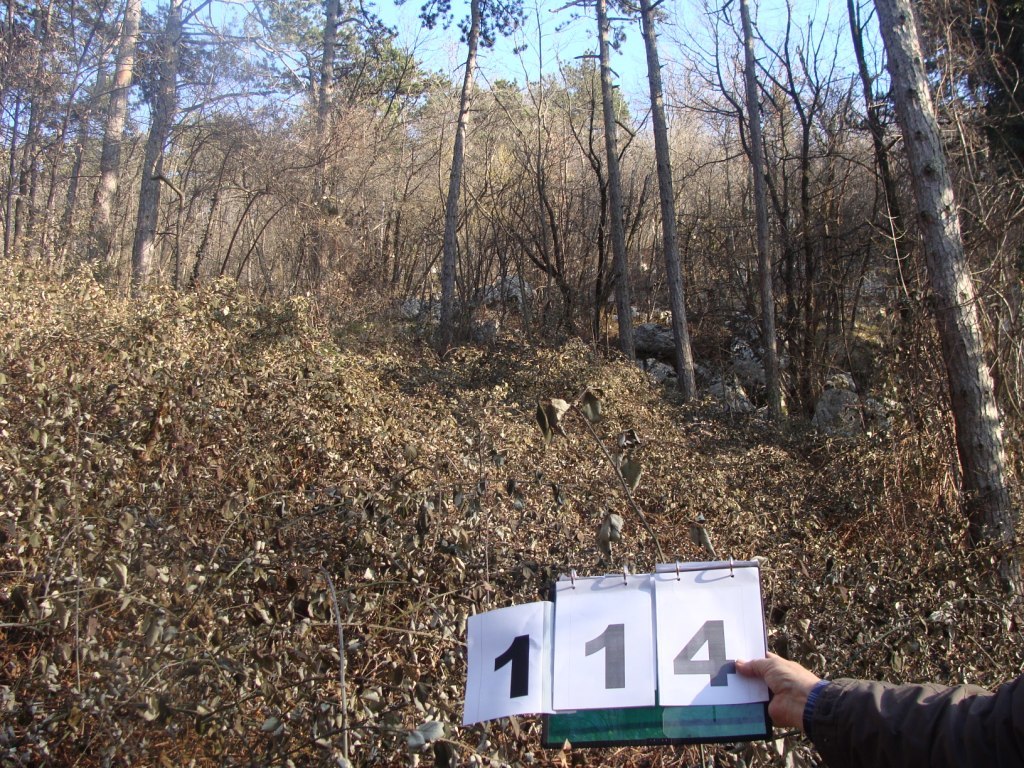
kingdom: Plantae
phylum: Tracheophyta
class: Magnoliopsida
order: Cornales
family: Cornaceae
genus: Cornus
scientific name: Cornus mas
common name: Cornelian-cherry
